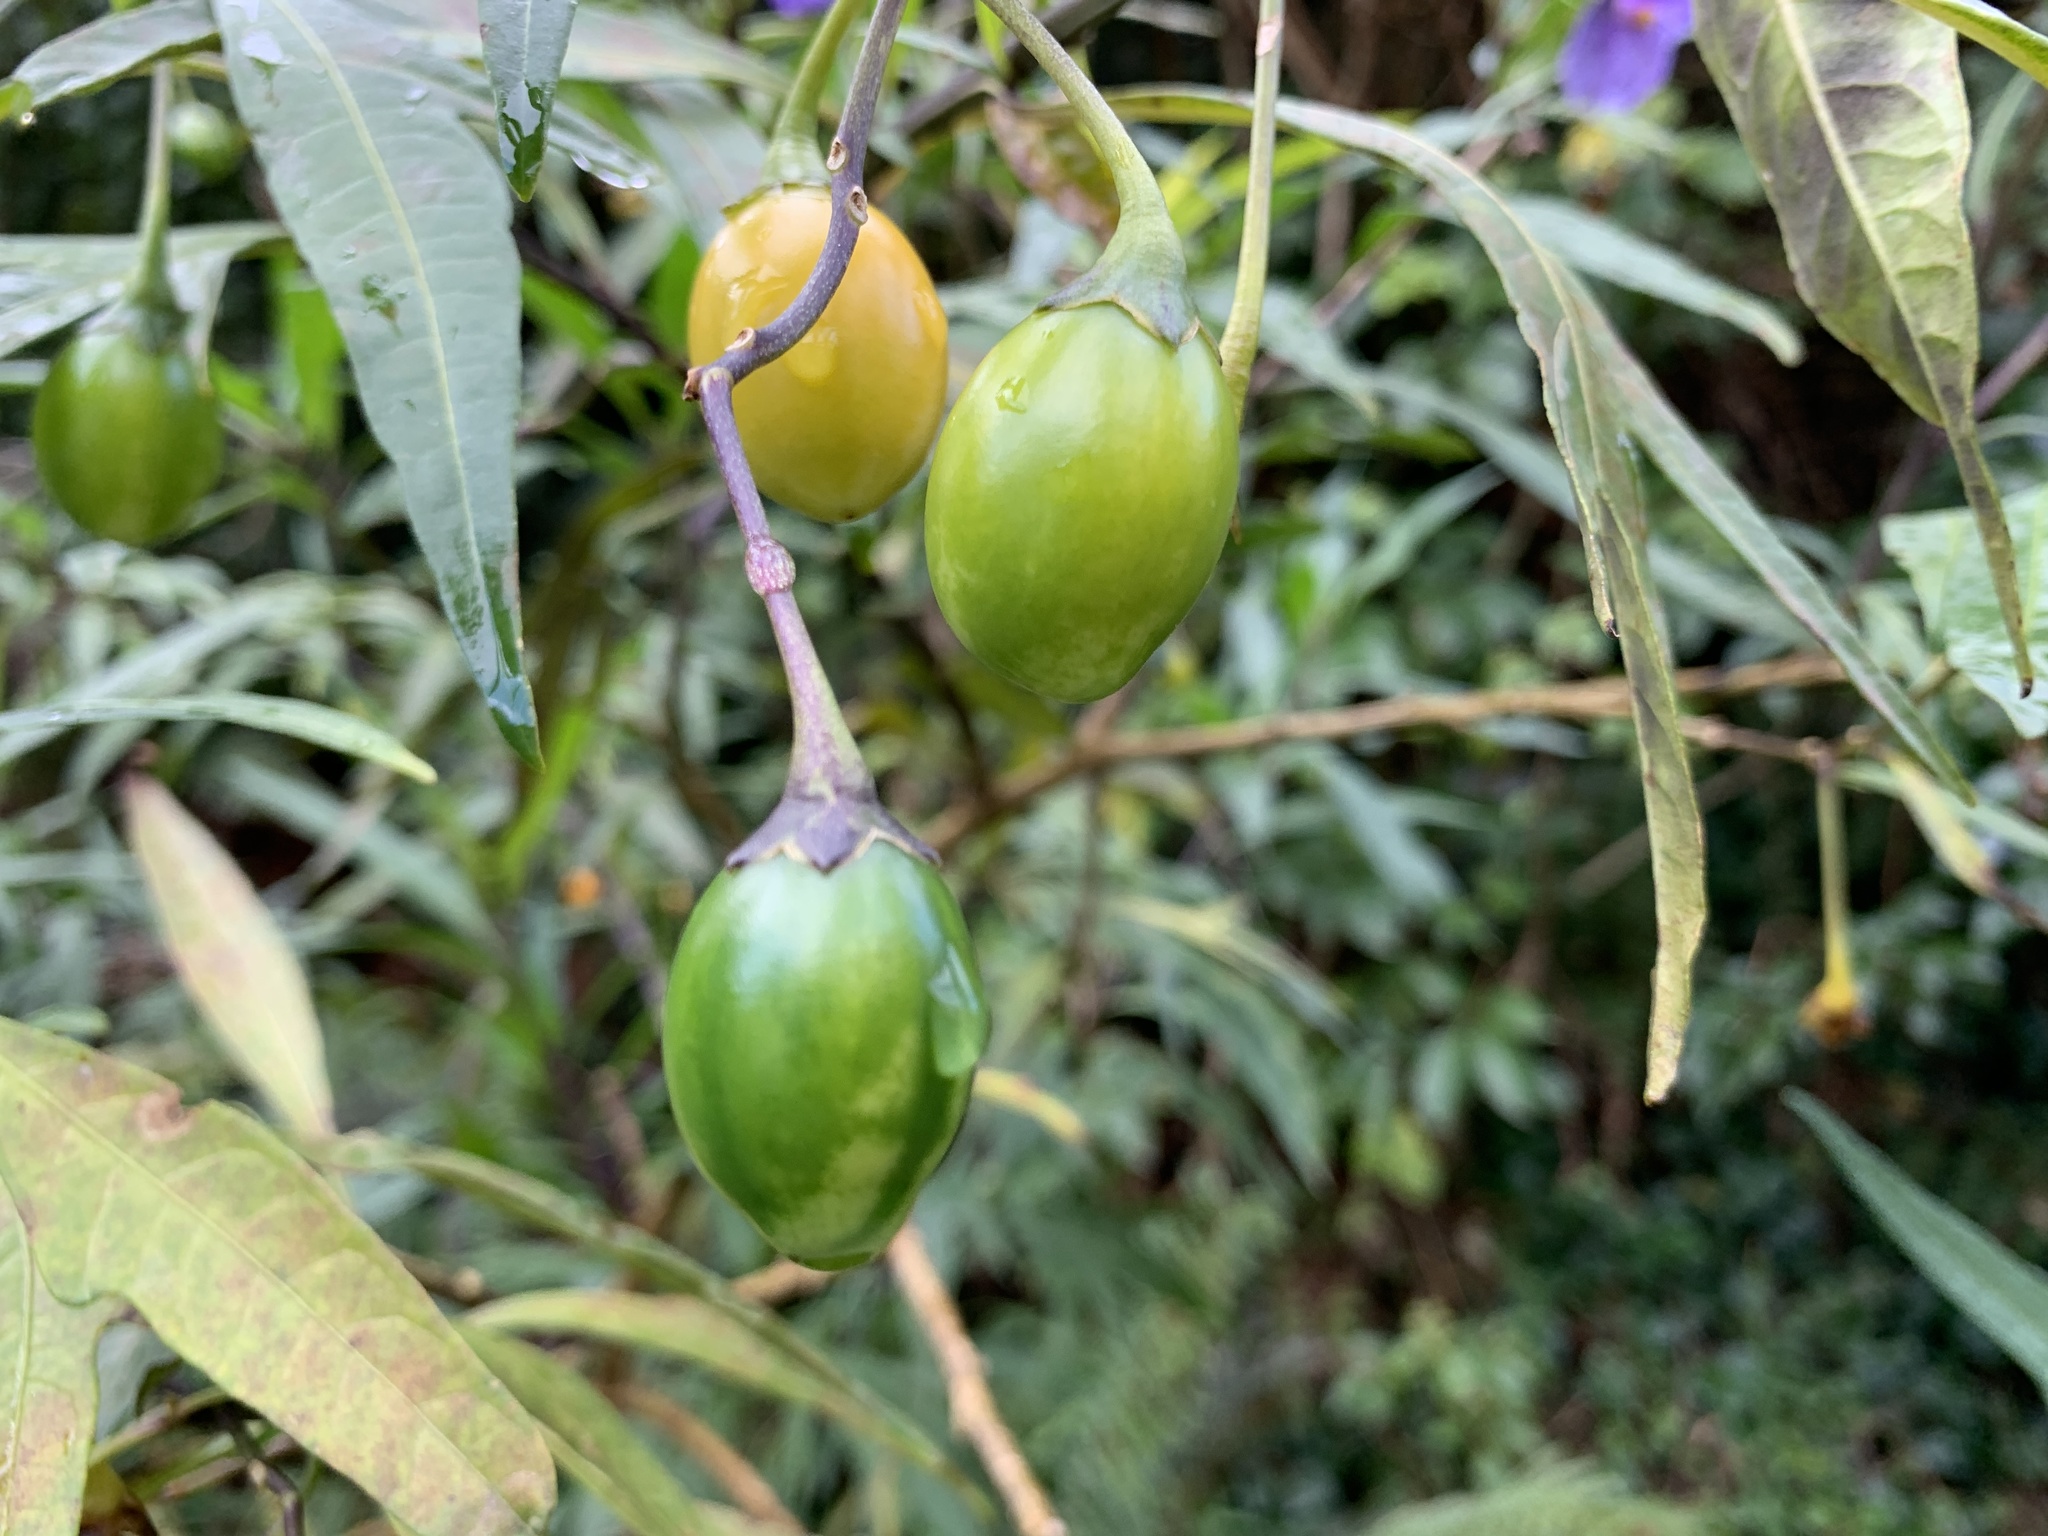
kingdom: Plantae
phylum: Tracheophyta
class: Magnoliopsida
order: Solanales
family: Solanaceae
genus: Solanum
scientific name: Solanum laciniatum
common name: Kangaroo-apple
